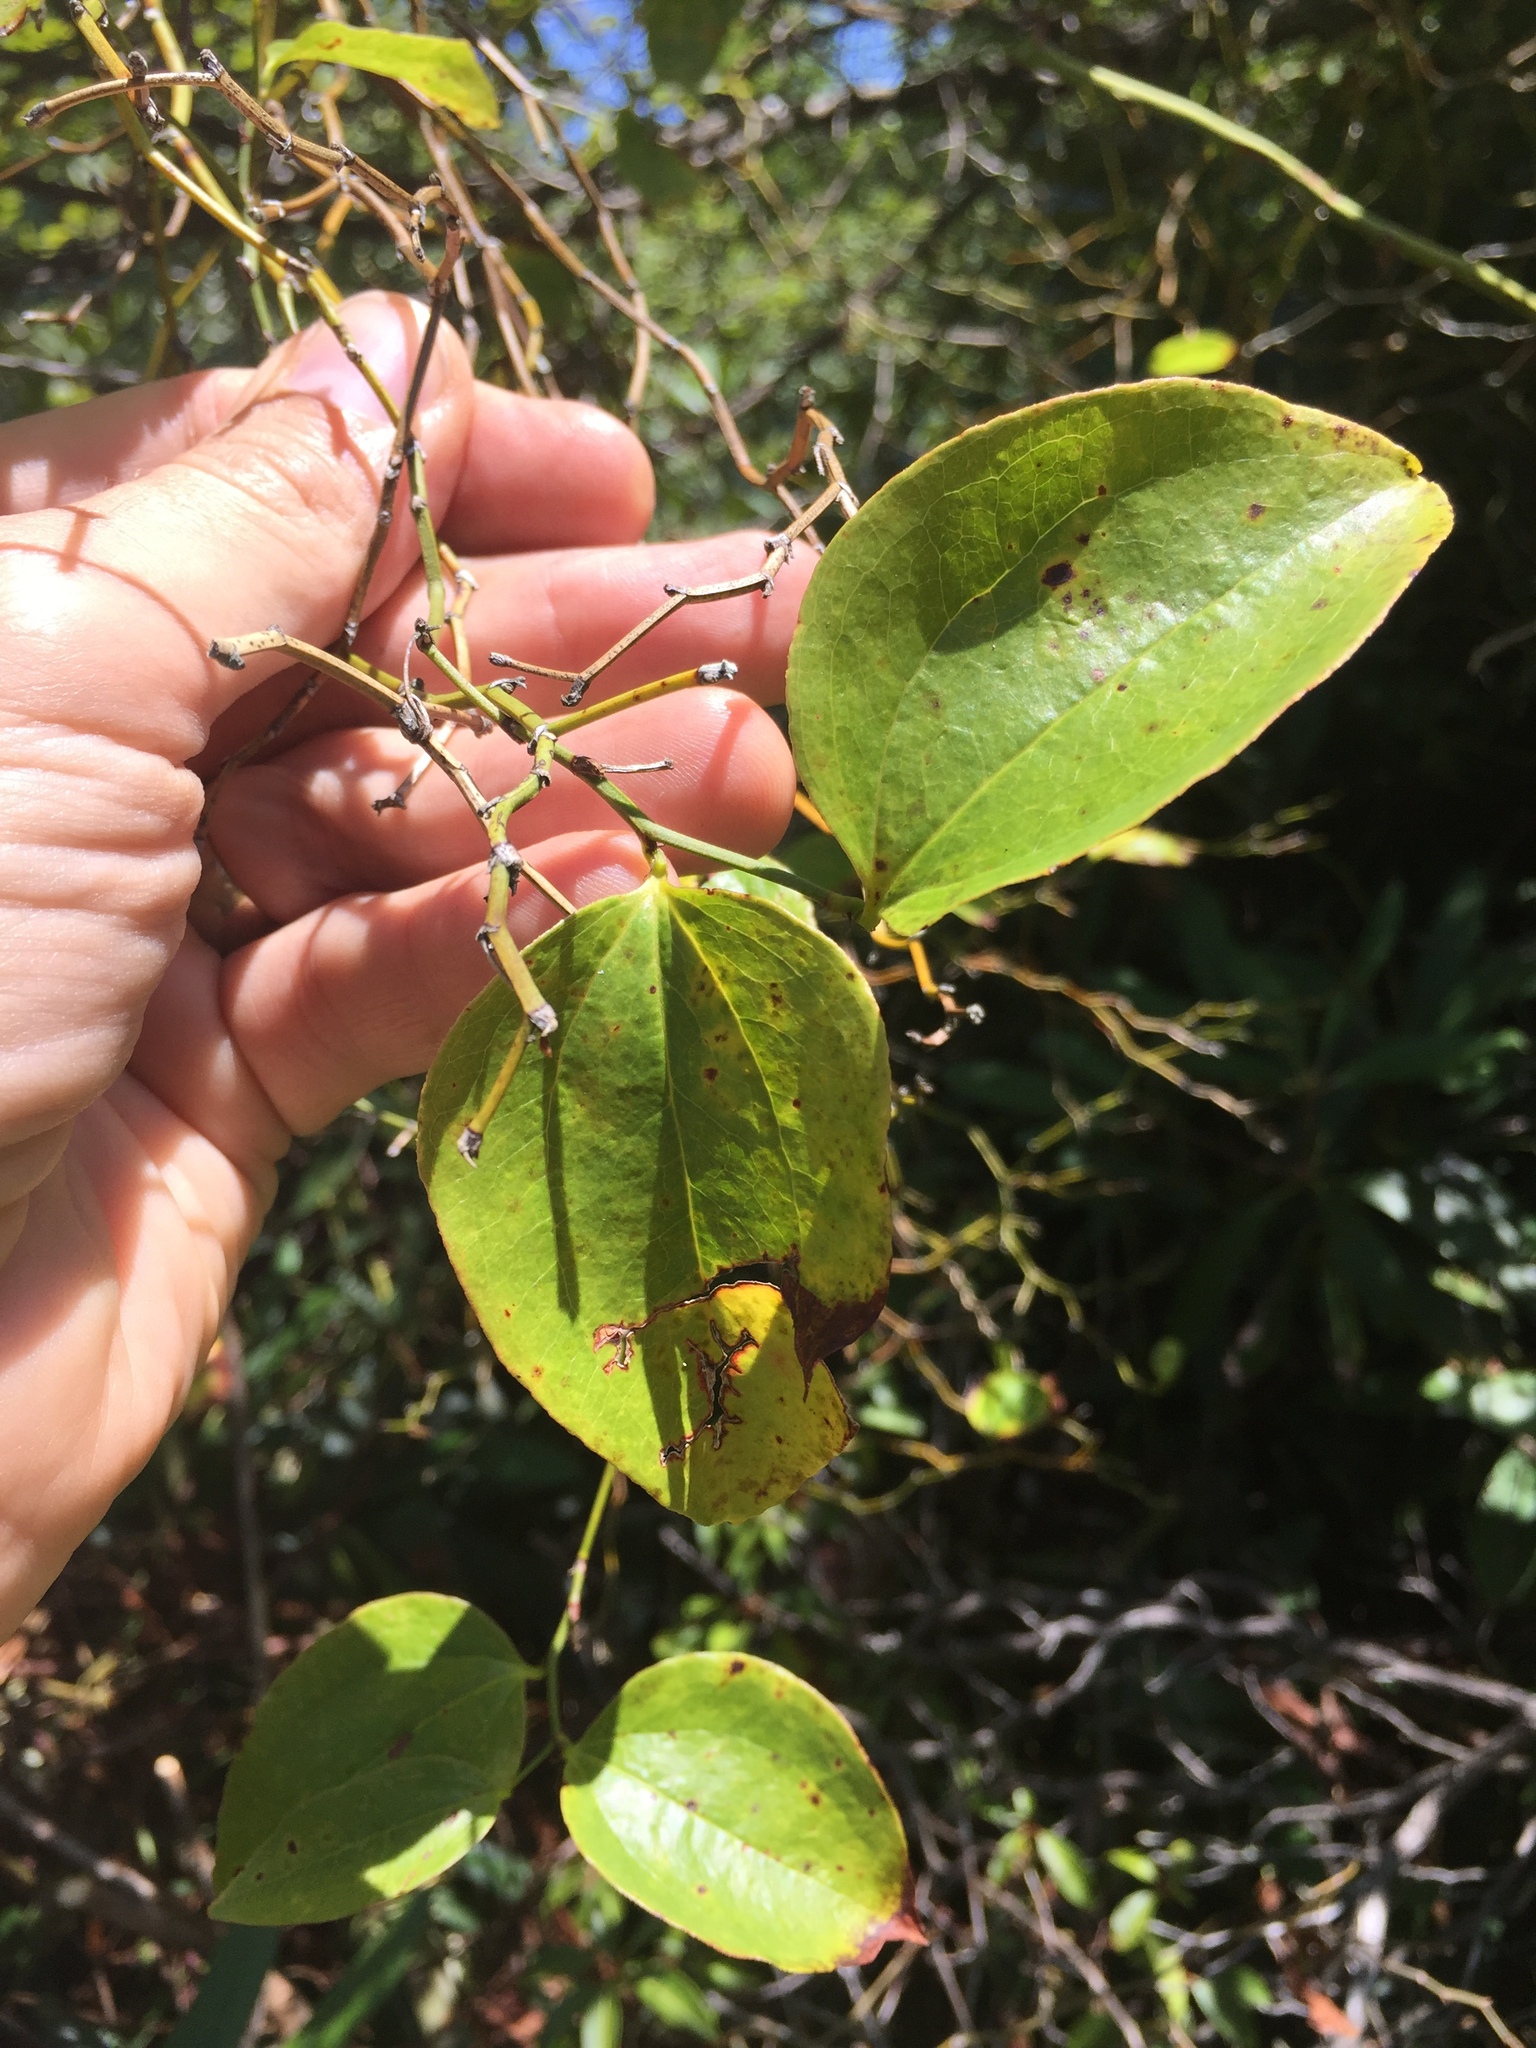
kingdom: Plantae
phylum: Tracheophyta
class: Liliopsida
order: Liliales
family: Smilacaceae
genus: Smilax
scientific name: Smilax rotundifolia
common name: Bullbriar
